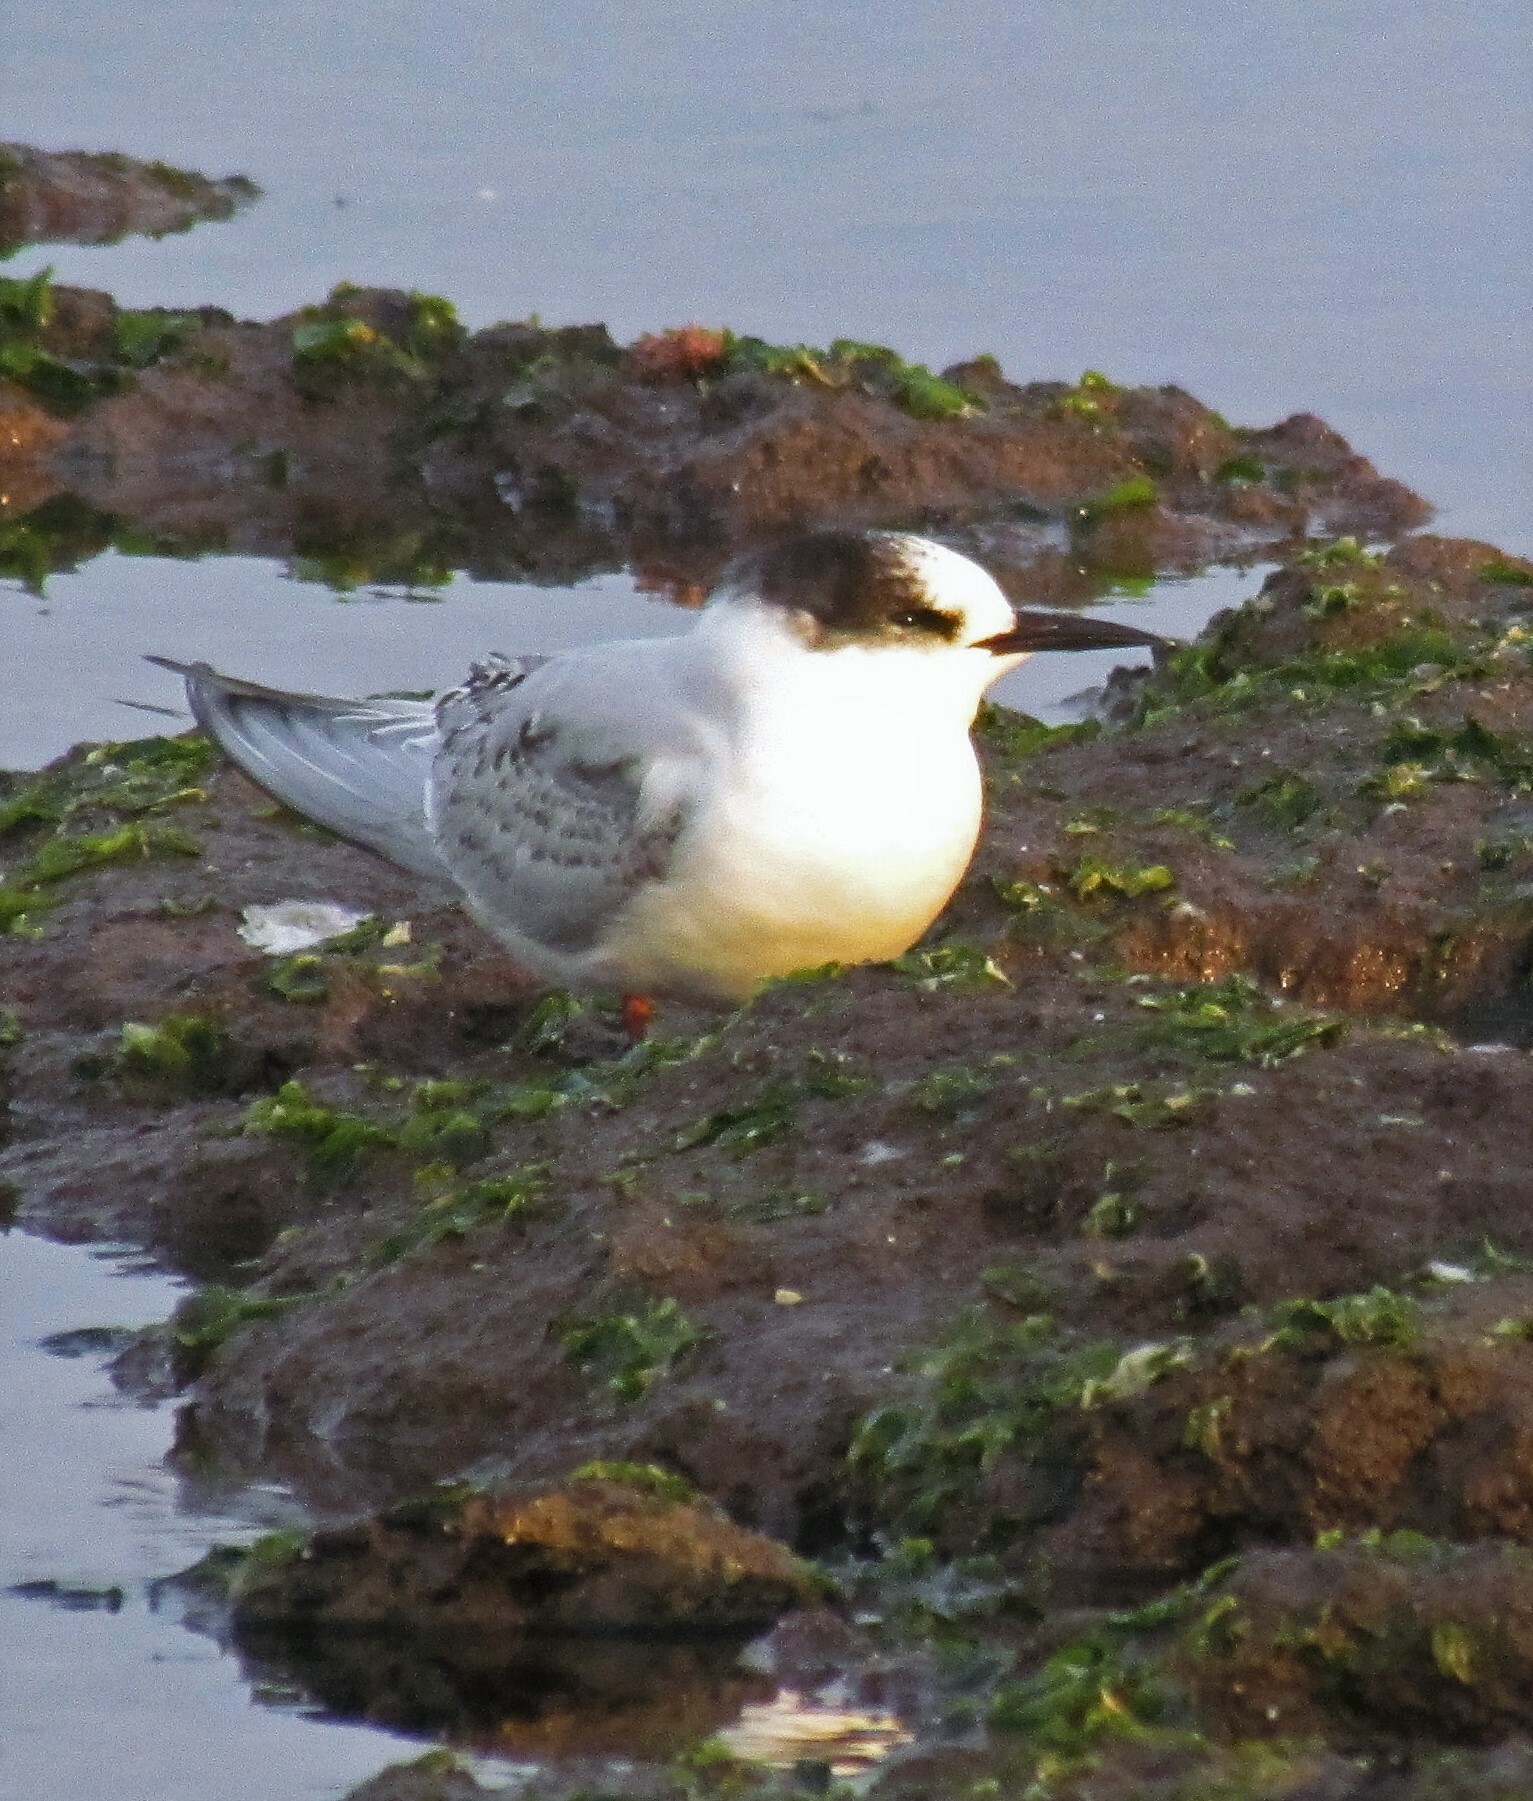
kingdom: Animalia
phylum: Chordata
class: Aves
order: Charadriiformes
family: Laridae
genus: Sterna
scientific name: Sterna hirundinacea
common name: South american tern
